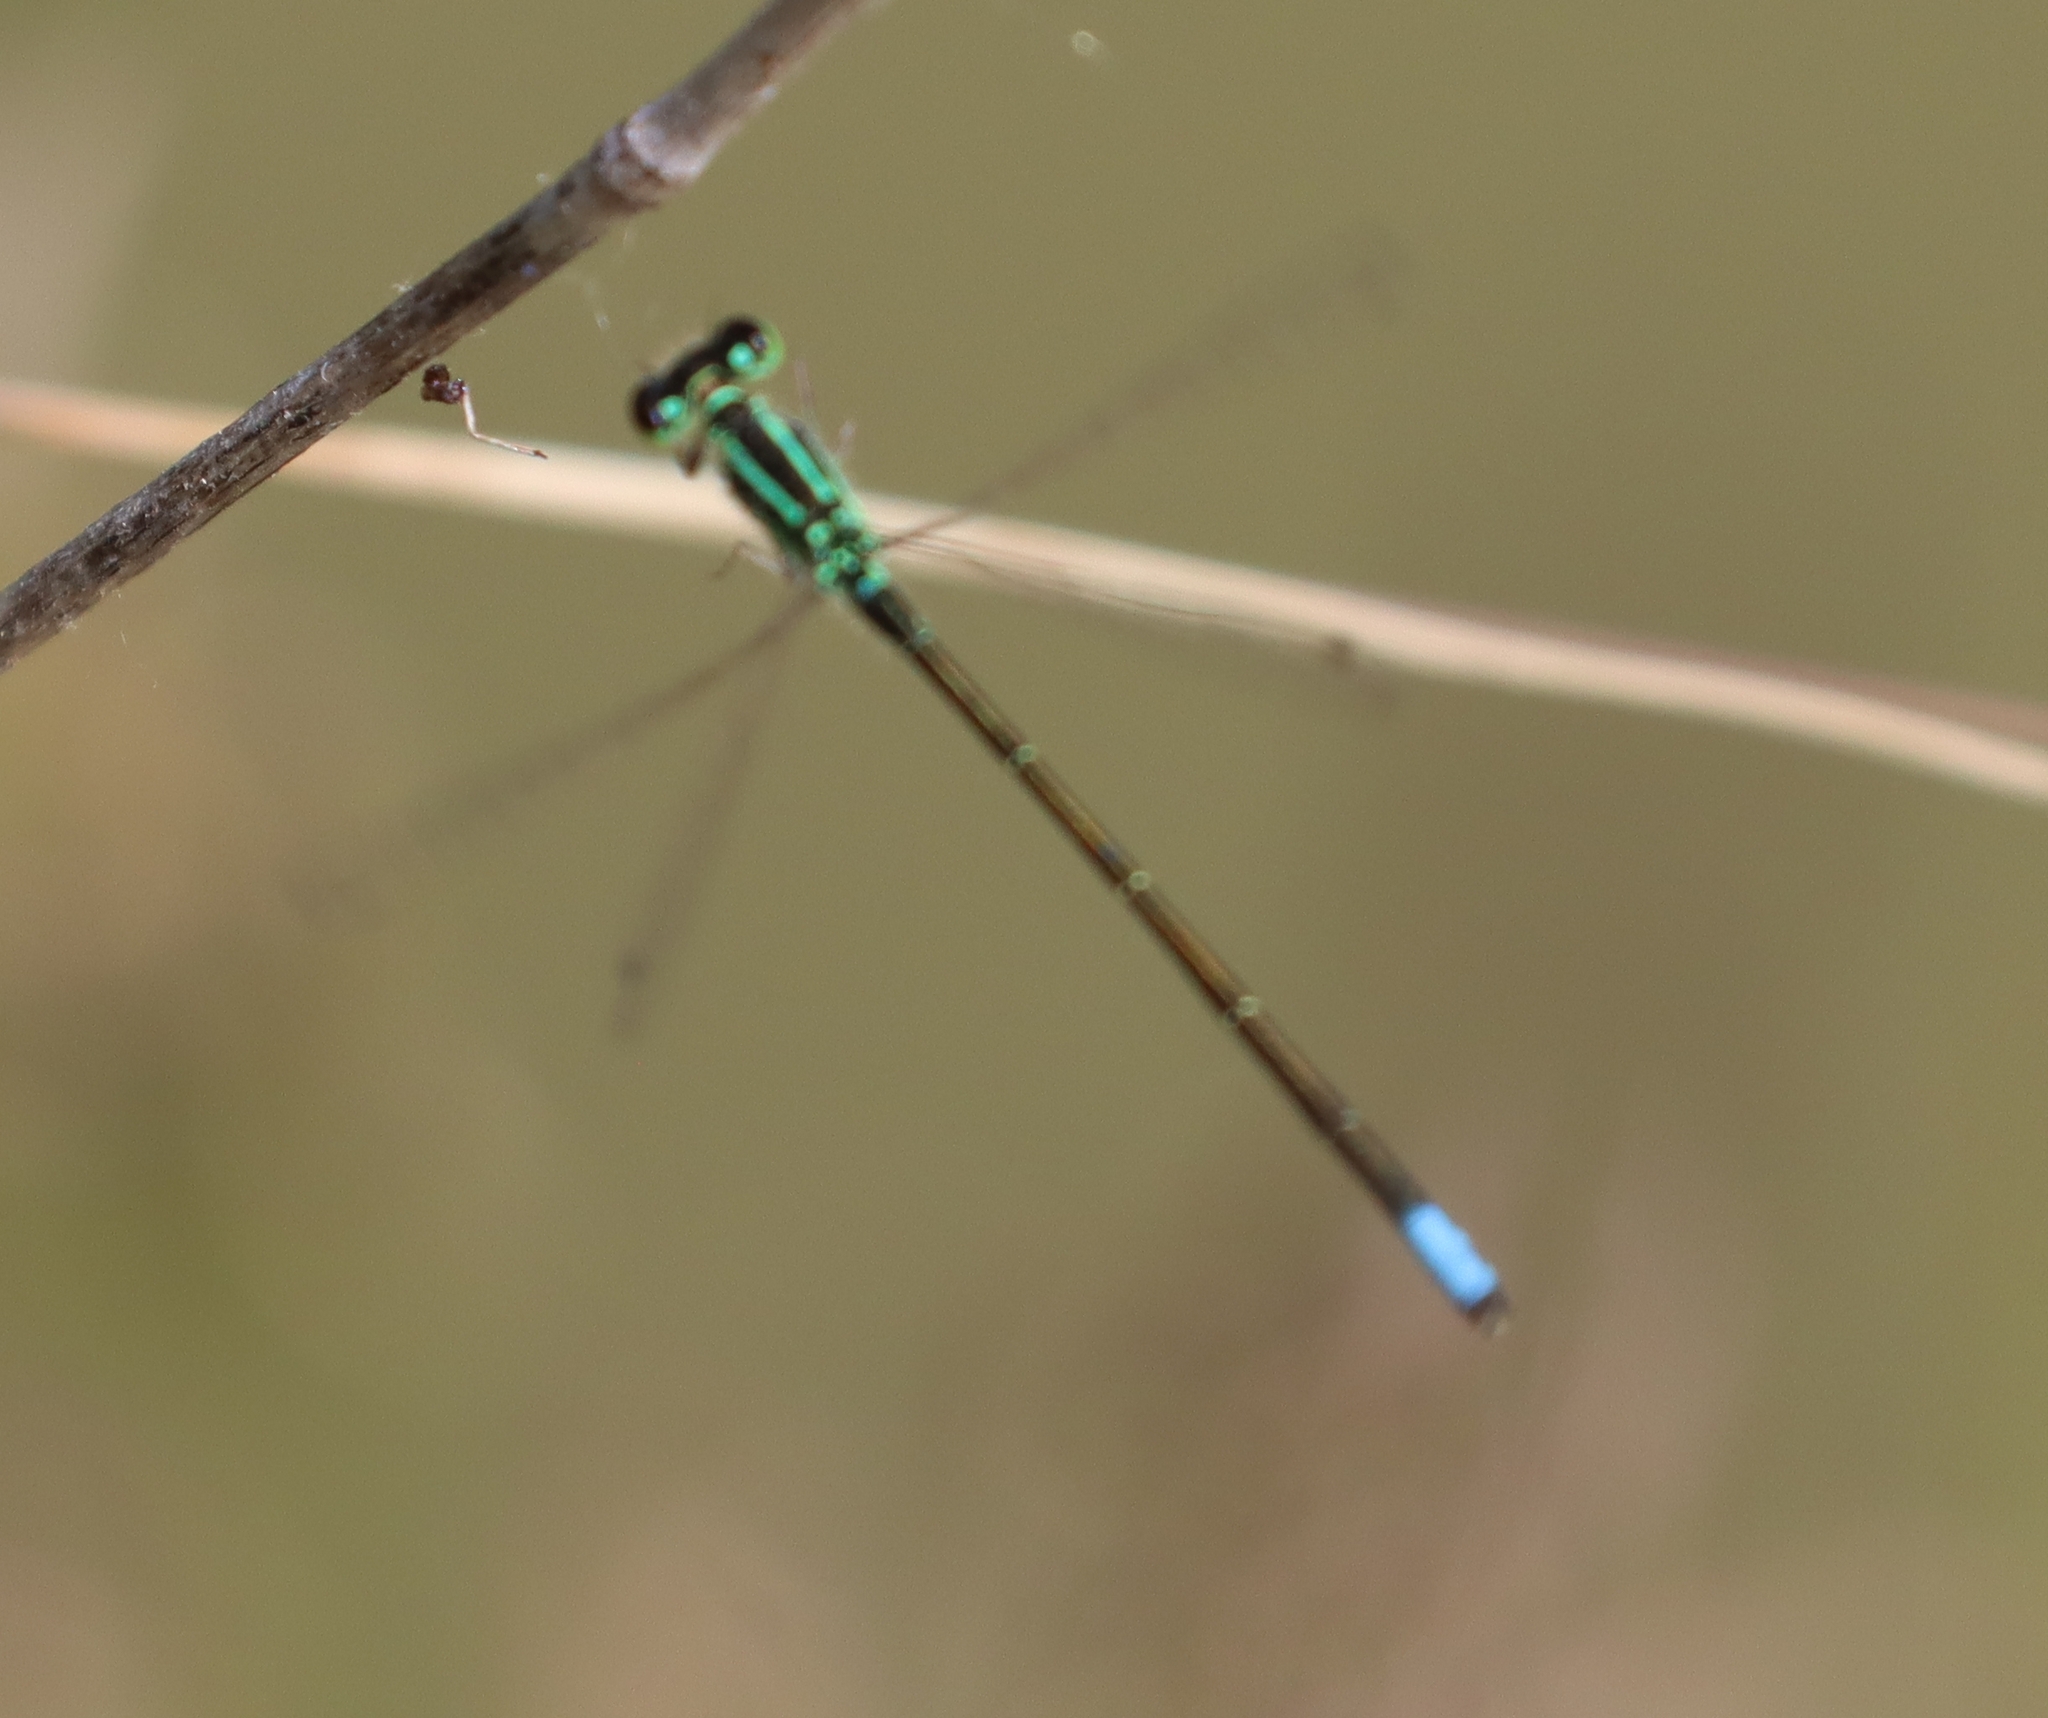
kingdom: Animalia
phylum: Arthropoda
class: Insecta
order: Odonata
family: Coenagrionidae
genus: Ischnura
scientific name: Ischnura verticalis
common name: Eastern forktail
